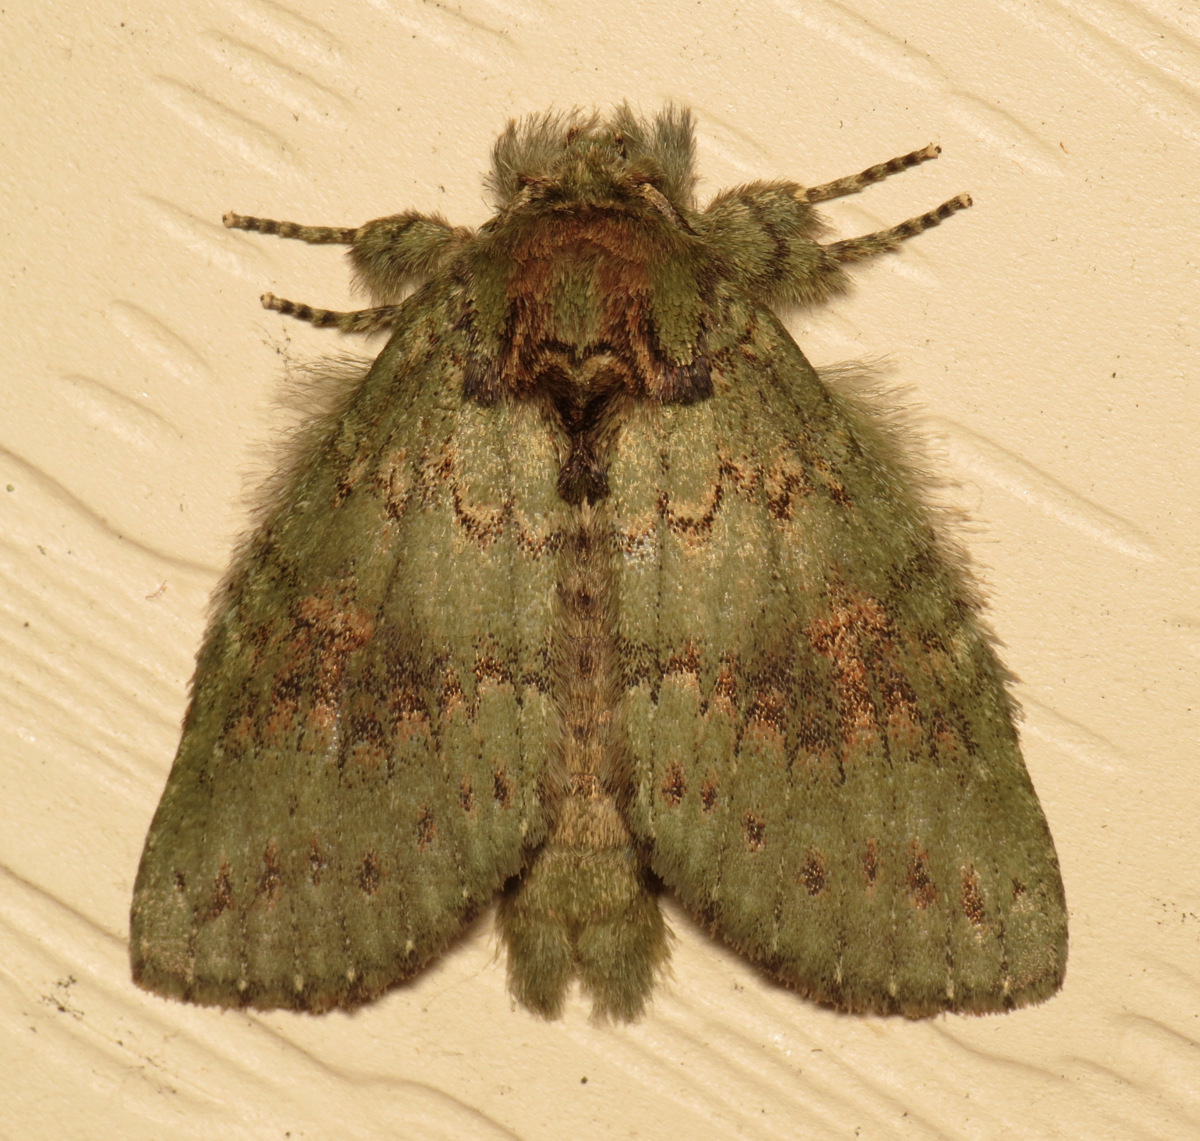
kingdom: Animalia
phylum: Arthropoda
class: Insecta
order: Lepidoptera
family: Notodontidae
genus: Disphragis
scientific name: Disphragis Cecrita biundata
